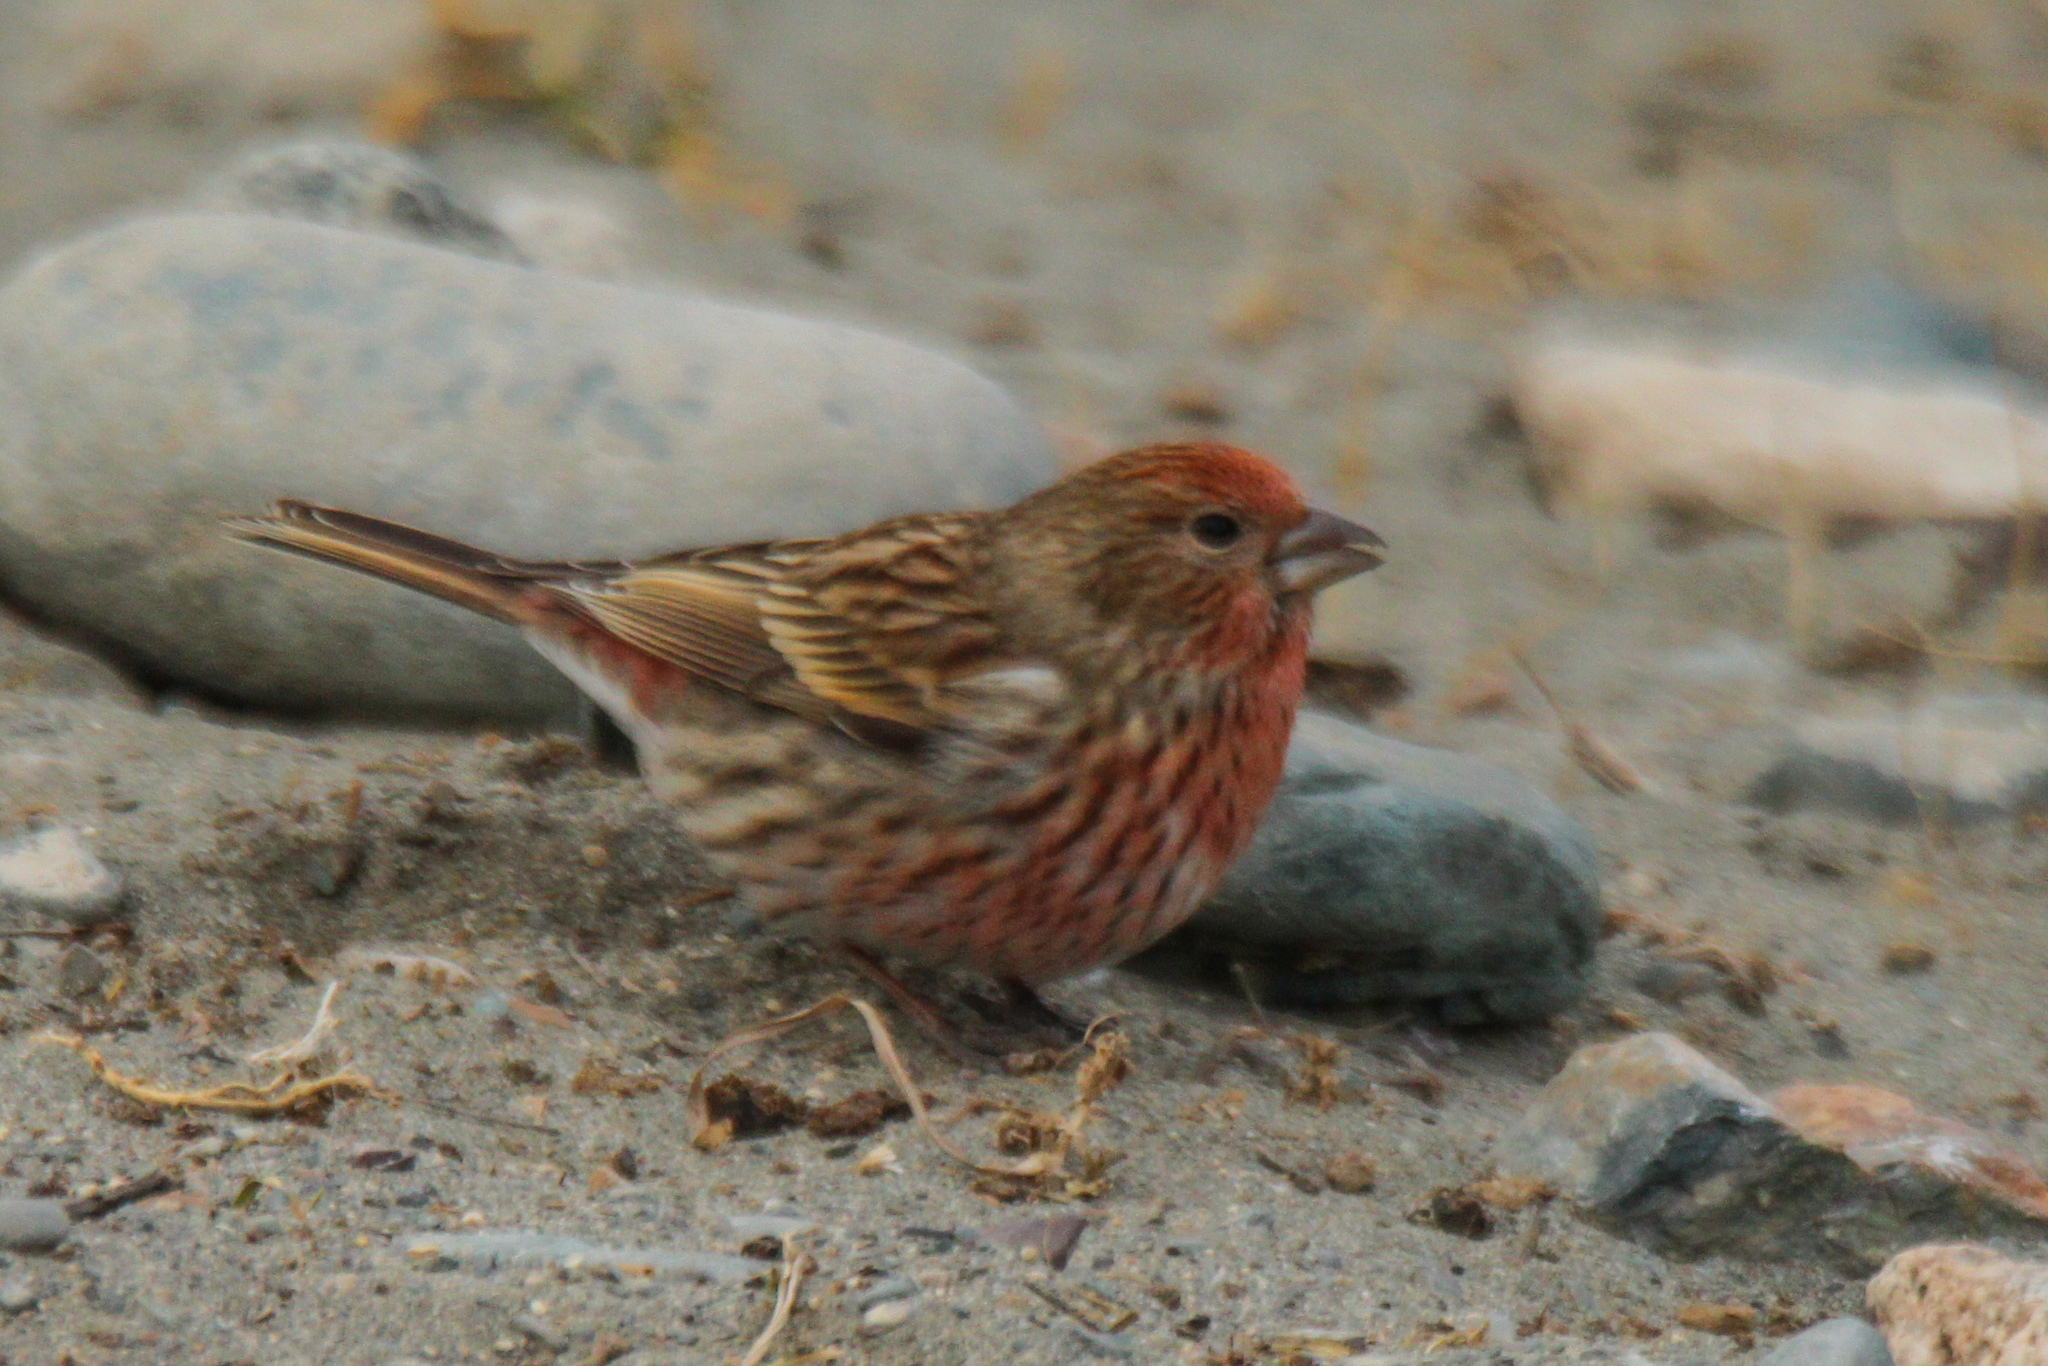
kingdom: Animalia
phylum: Chordata
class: Aves
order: Passeriformes
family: Fringillidae
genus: Carpodacus
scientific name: Carpodacus roseus
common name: Pallas's rosefinch
